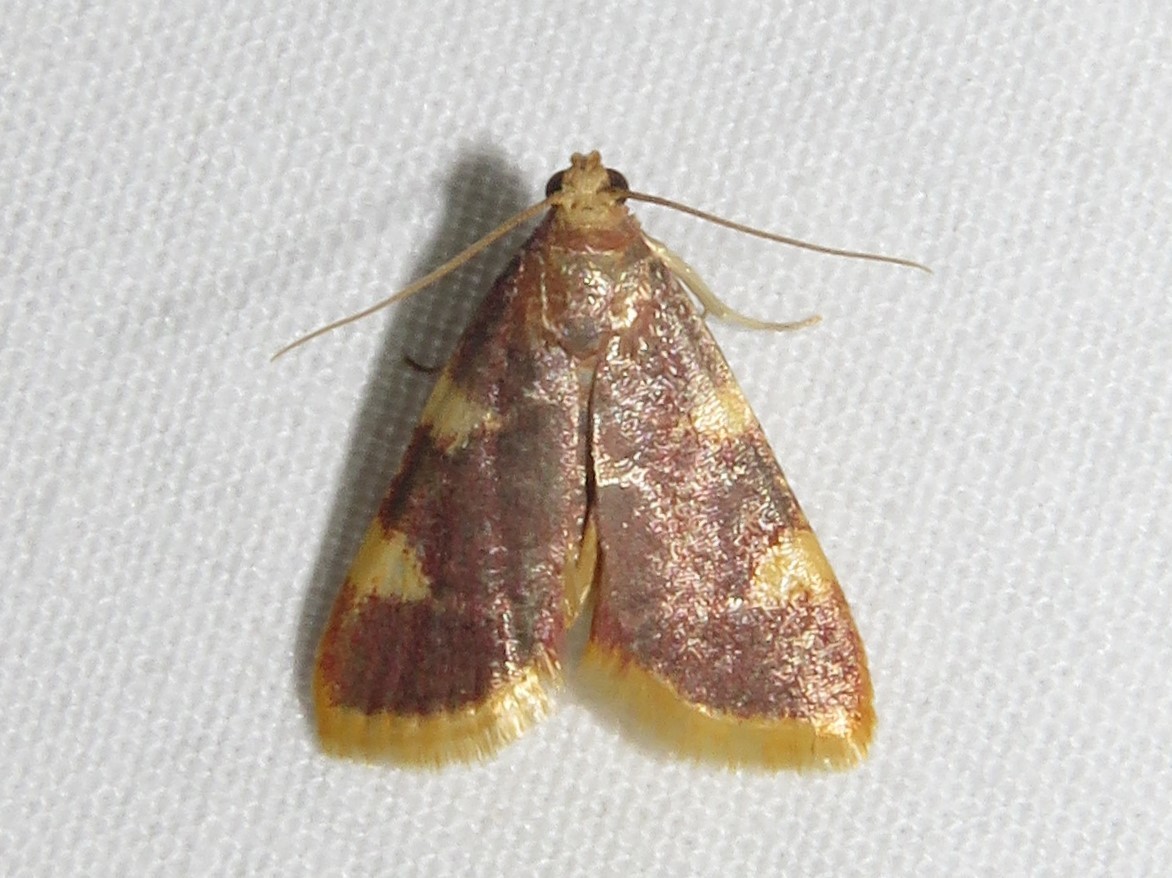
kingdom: Animalia
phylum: Arthropoda
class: Insecta
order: Lepidoptera
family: Pyralidae
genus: Hypsopygia
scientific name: Hypsopygia costalis
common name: Gold triangle
